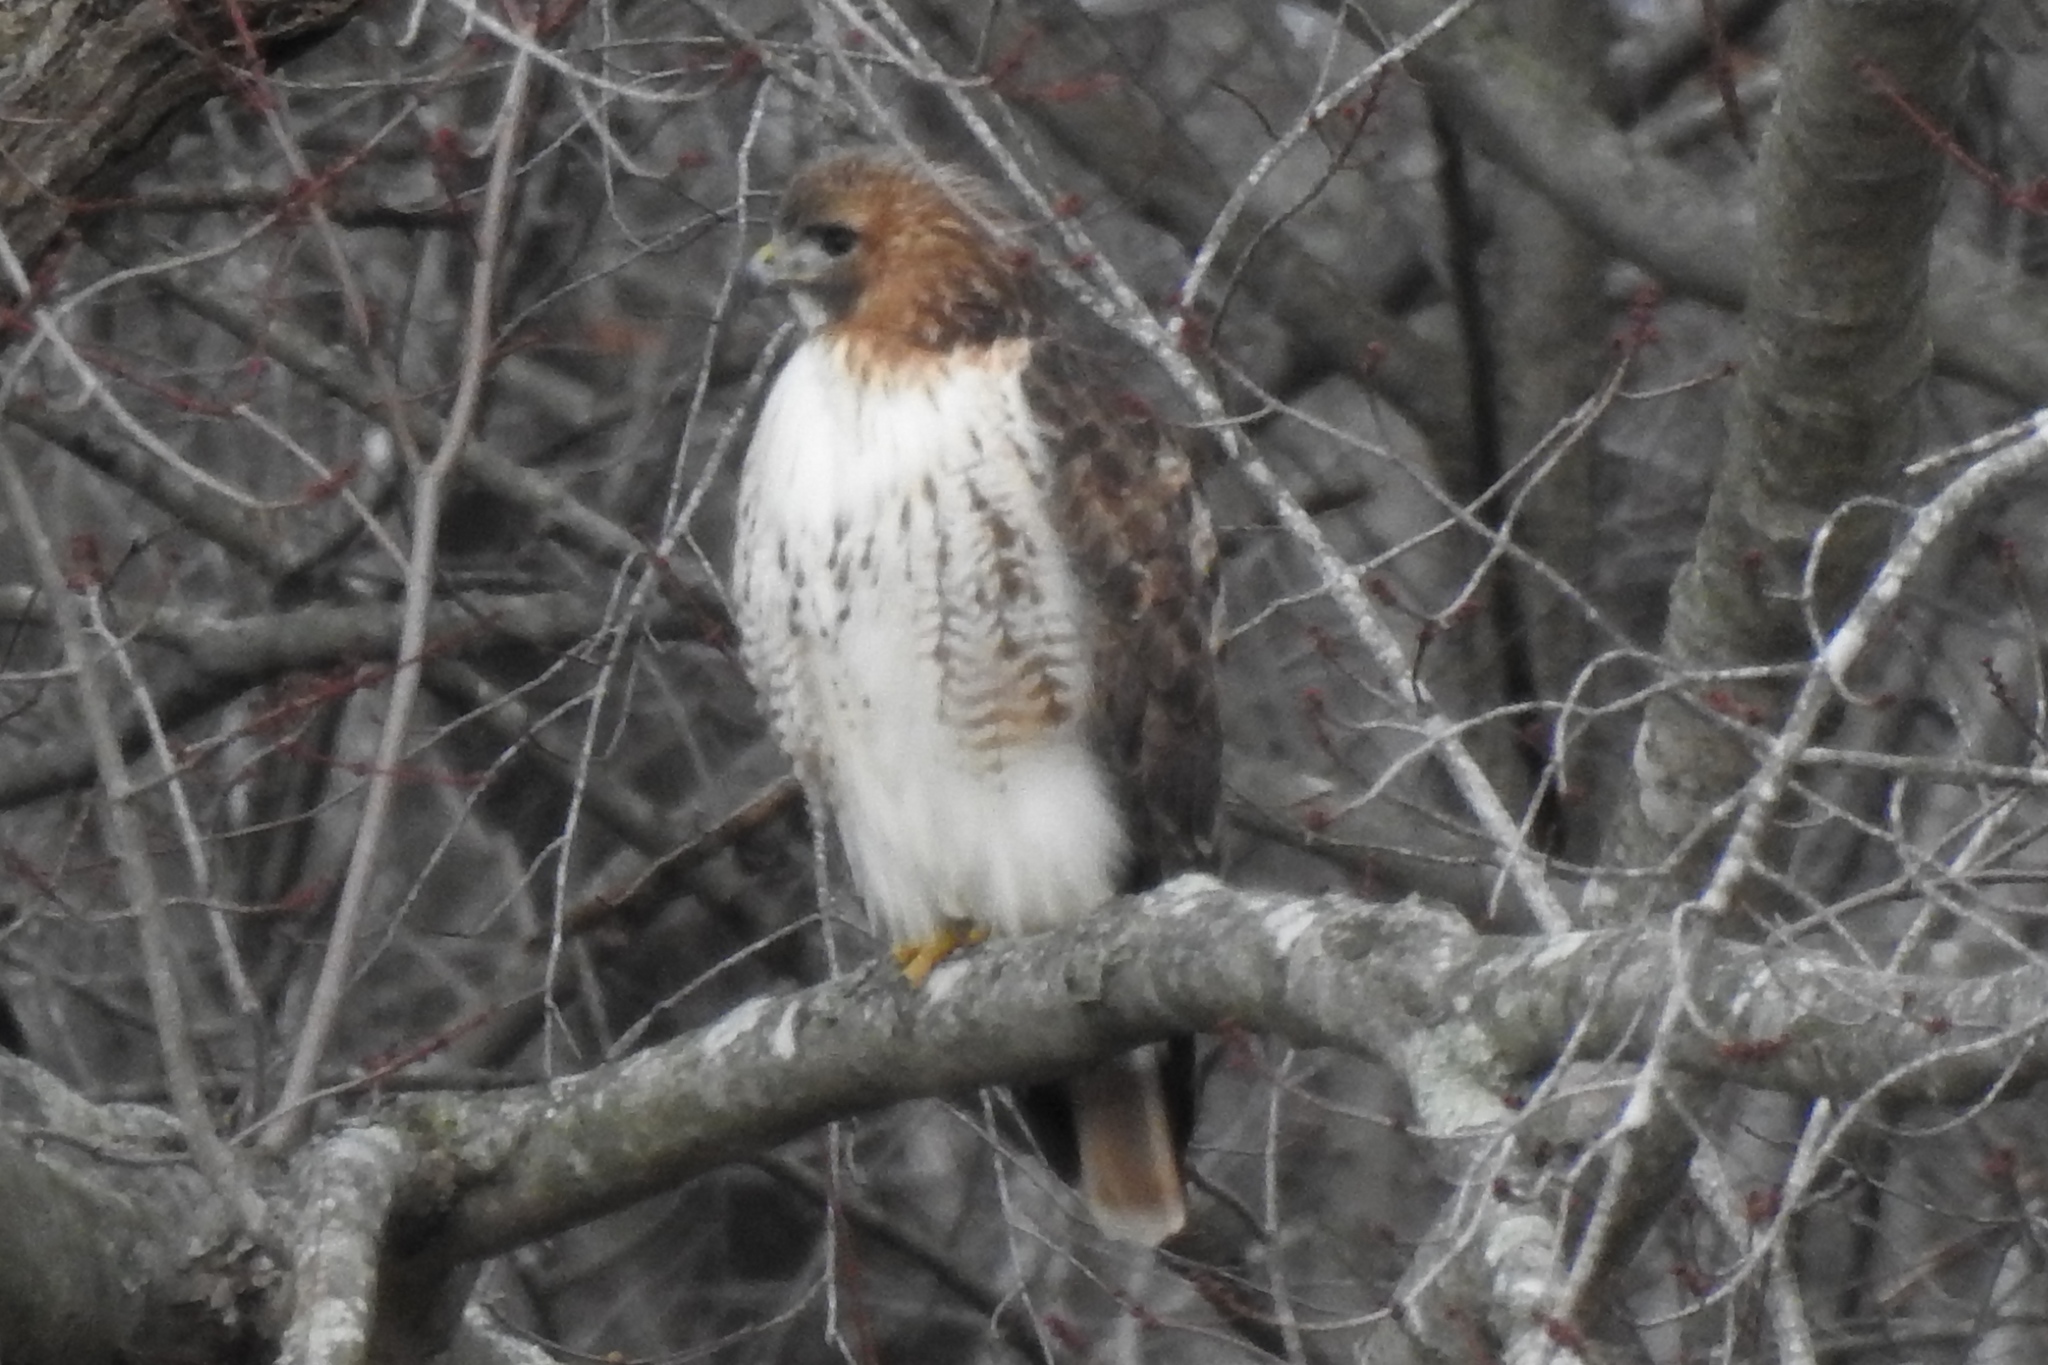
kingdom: Animalia
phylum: Chordata
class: Aves
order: Accipitriformes
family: Accipitridae
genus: Buteo
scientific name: Buteo jamaicensis
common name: Red-tailed hawk
